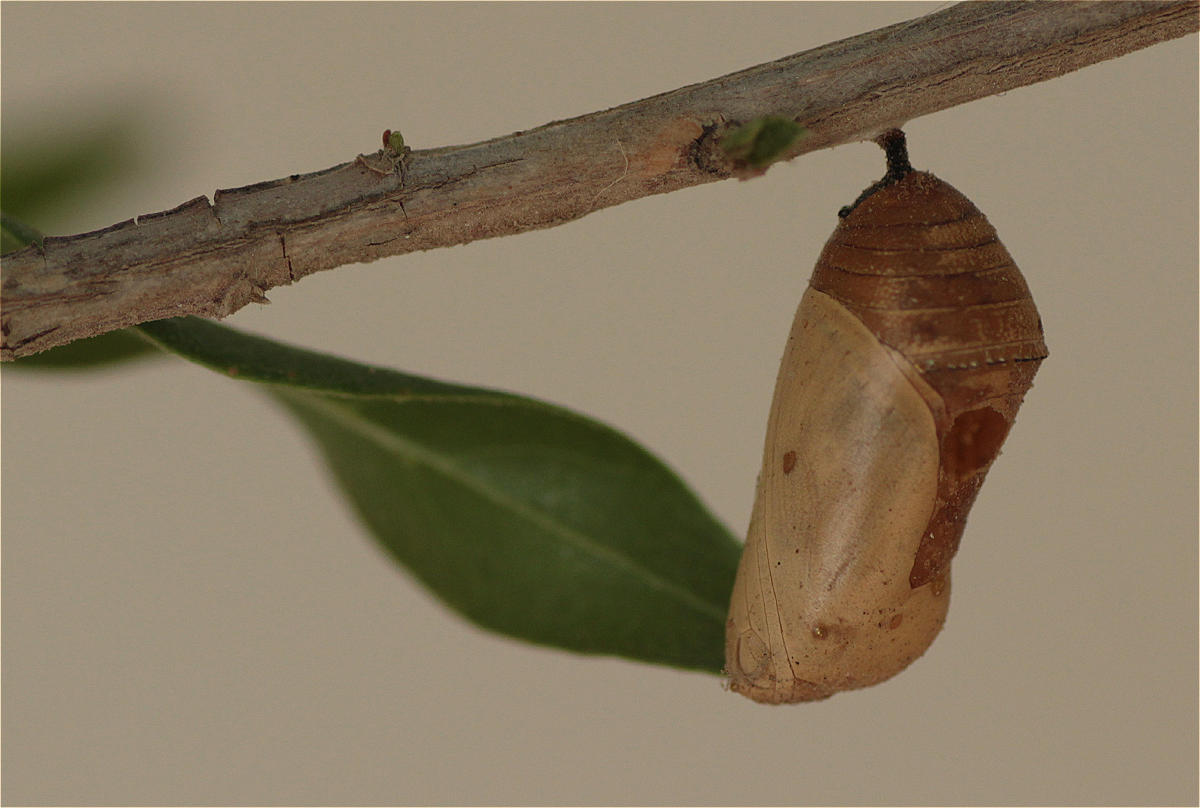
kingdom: Animalia
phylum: Arthropoda
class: Insecta
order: Lepidoptera
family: Nymphalidae
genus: Danaus
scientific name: Danaus chrysippus
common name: Plain tiger
